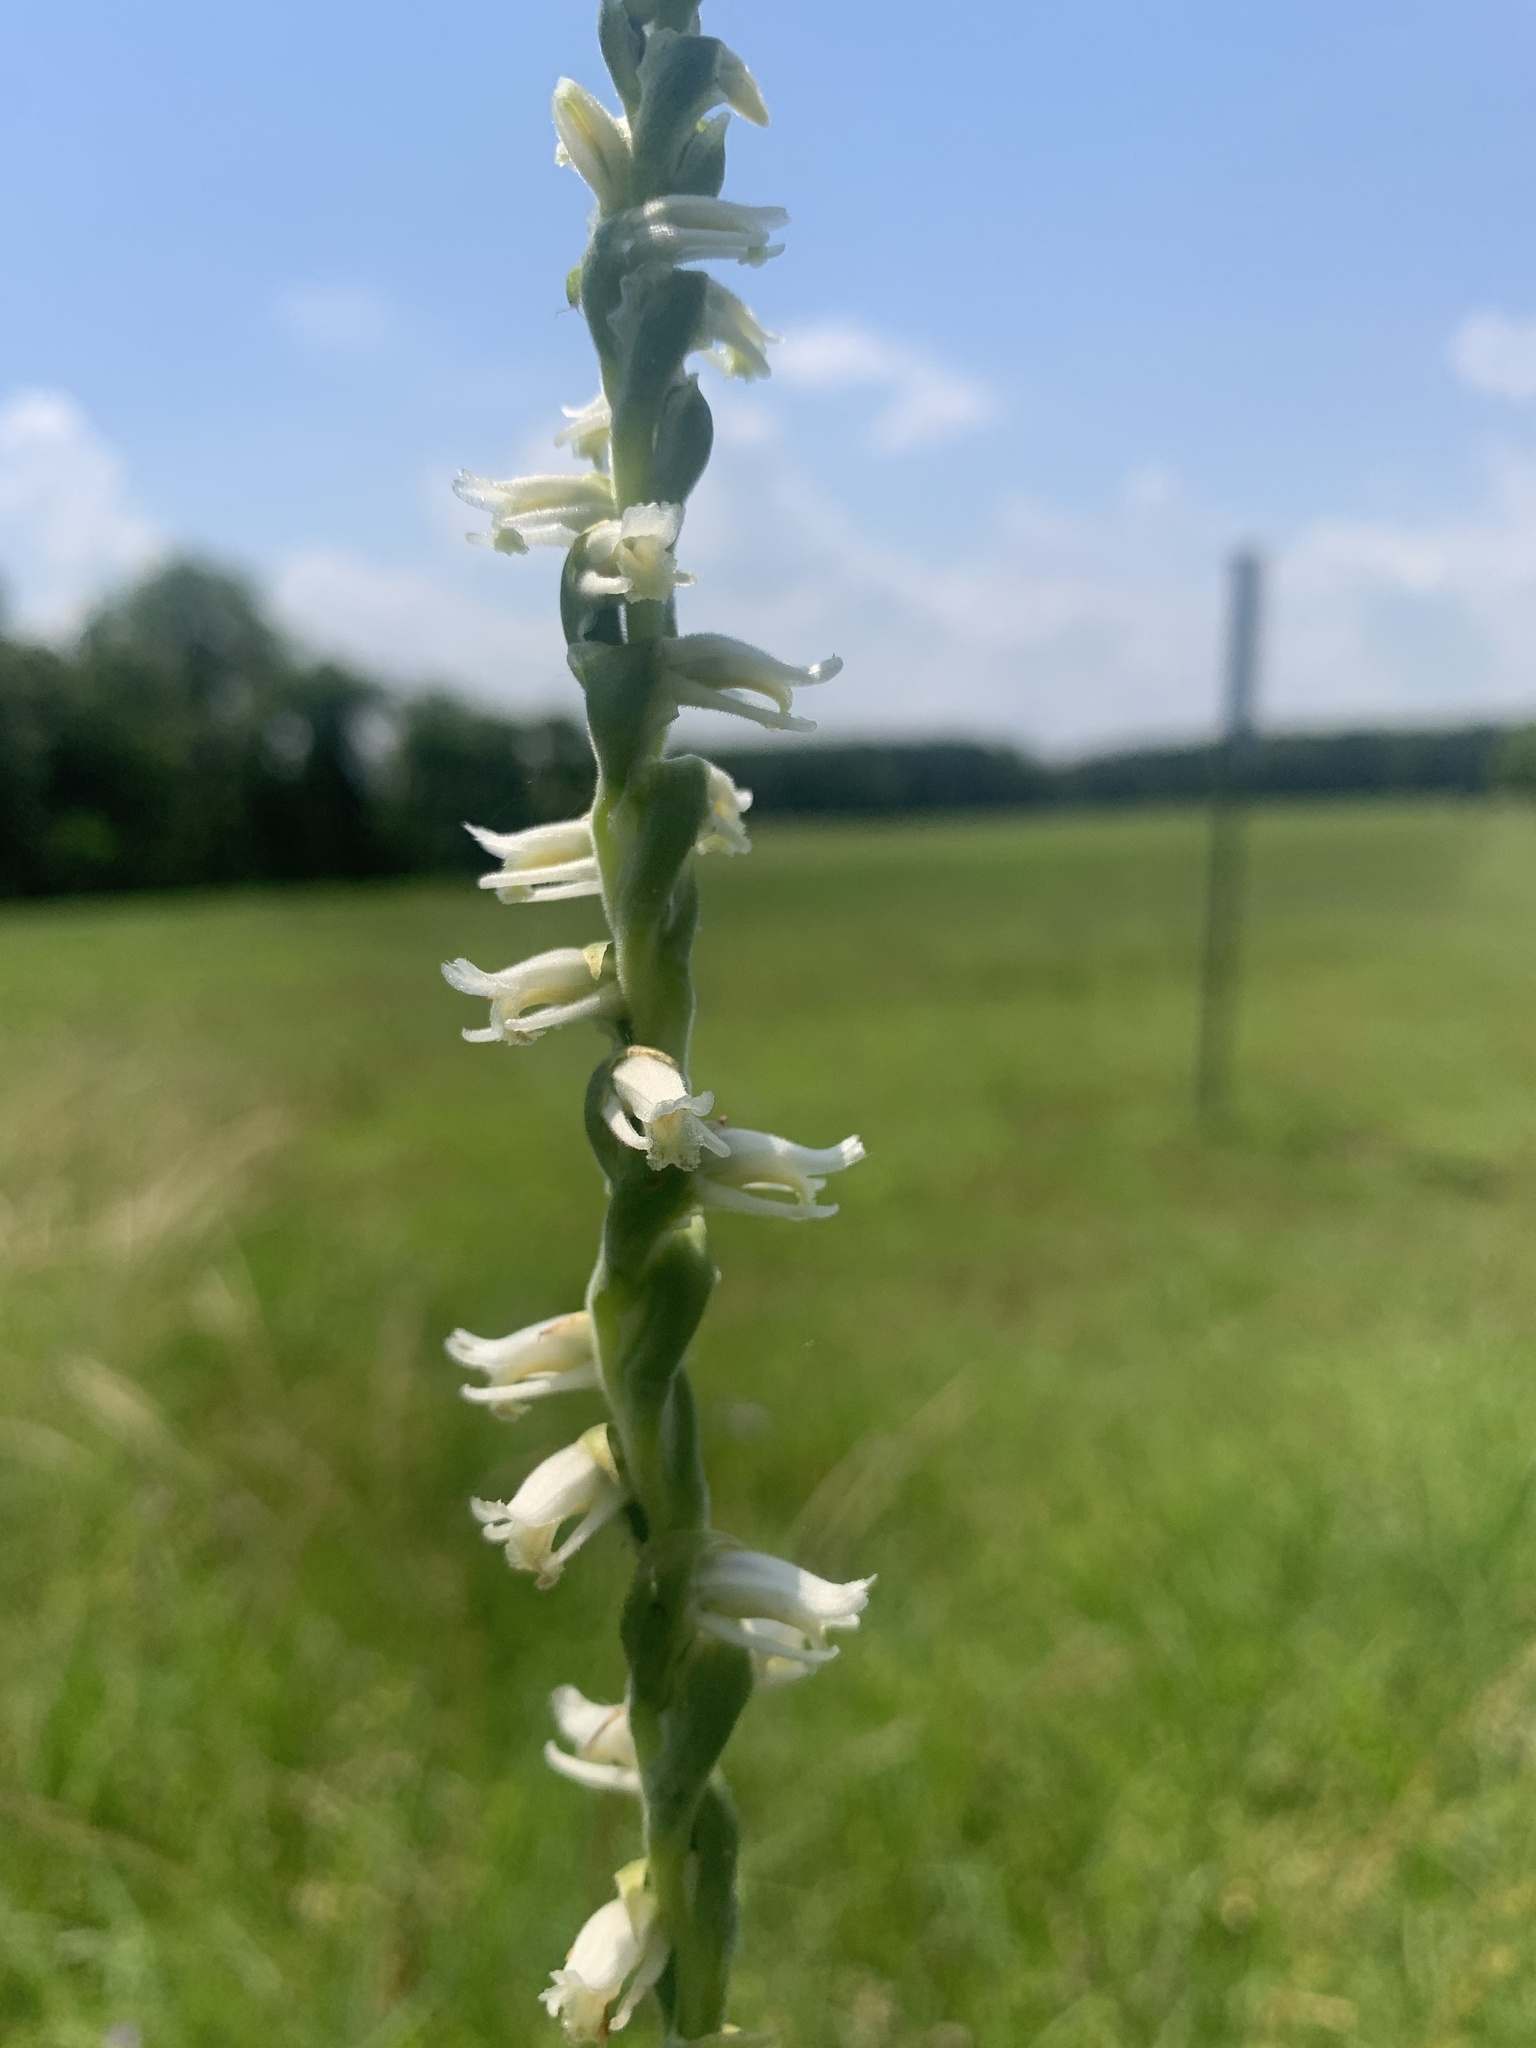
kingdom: Plantae
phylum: Tracheophyta
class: Liliopsida
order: Asparagales
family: Orchidaceae
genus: Spiranthes
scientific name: Spiranthes vernalis
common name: Spring ladies'-tresses
